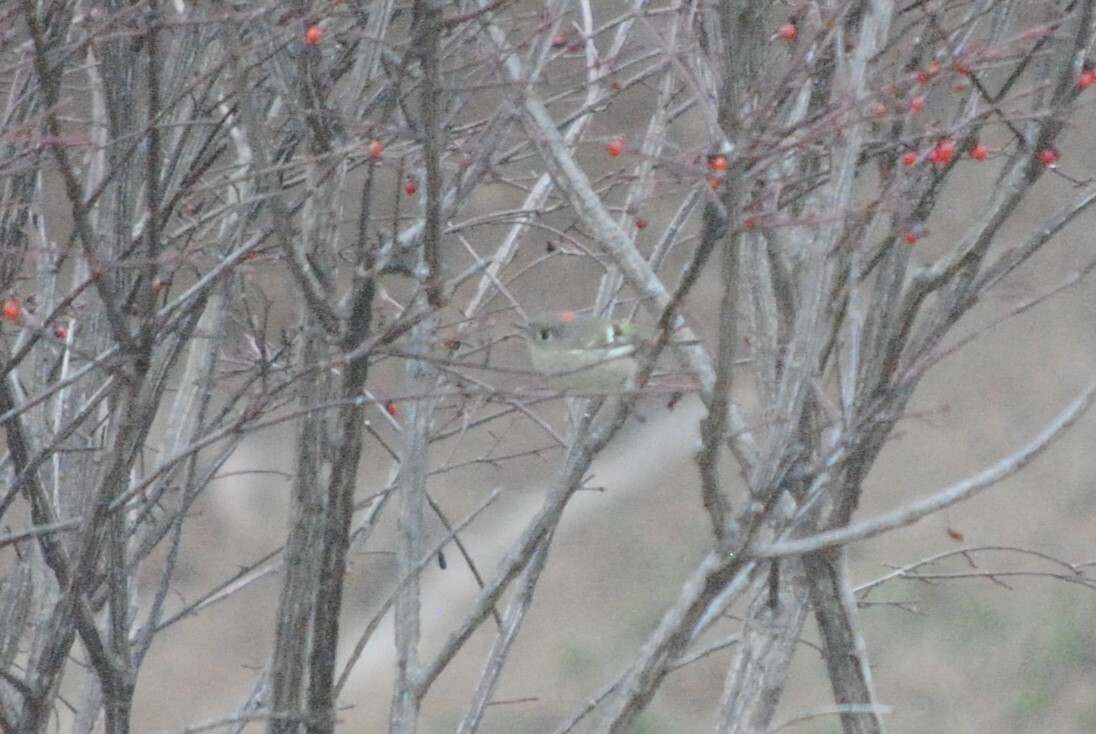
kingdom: Animalia
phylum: Chordata
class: Aves
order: Passeriformes
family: Regulidae
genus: Regulus
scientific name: Regulus calendula
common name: Ruby-crowned kinglet
